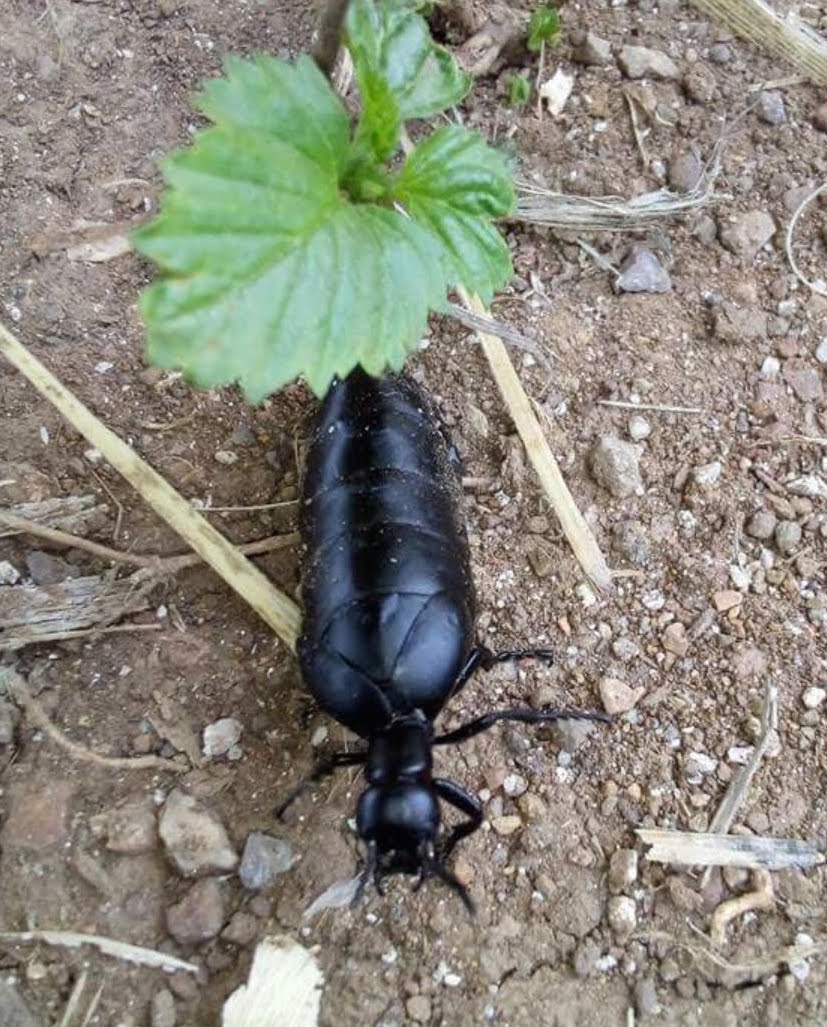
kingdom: Animalia
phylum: Arthropoda
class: Insecta
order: Coleoptera
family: Meloidae
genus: Meloe
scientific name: Meloe laevis
